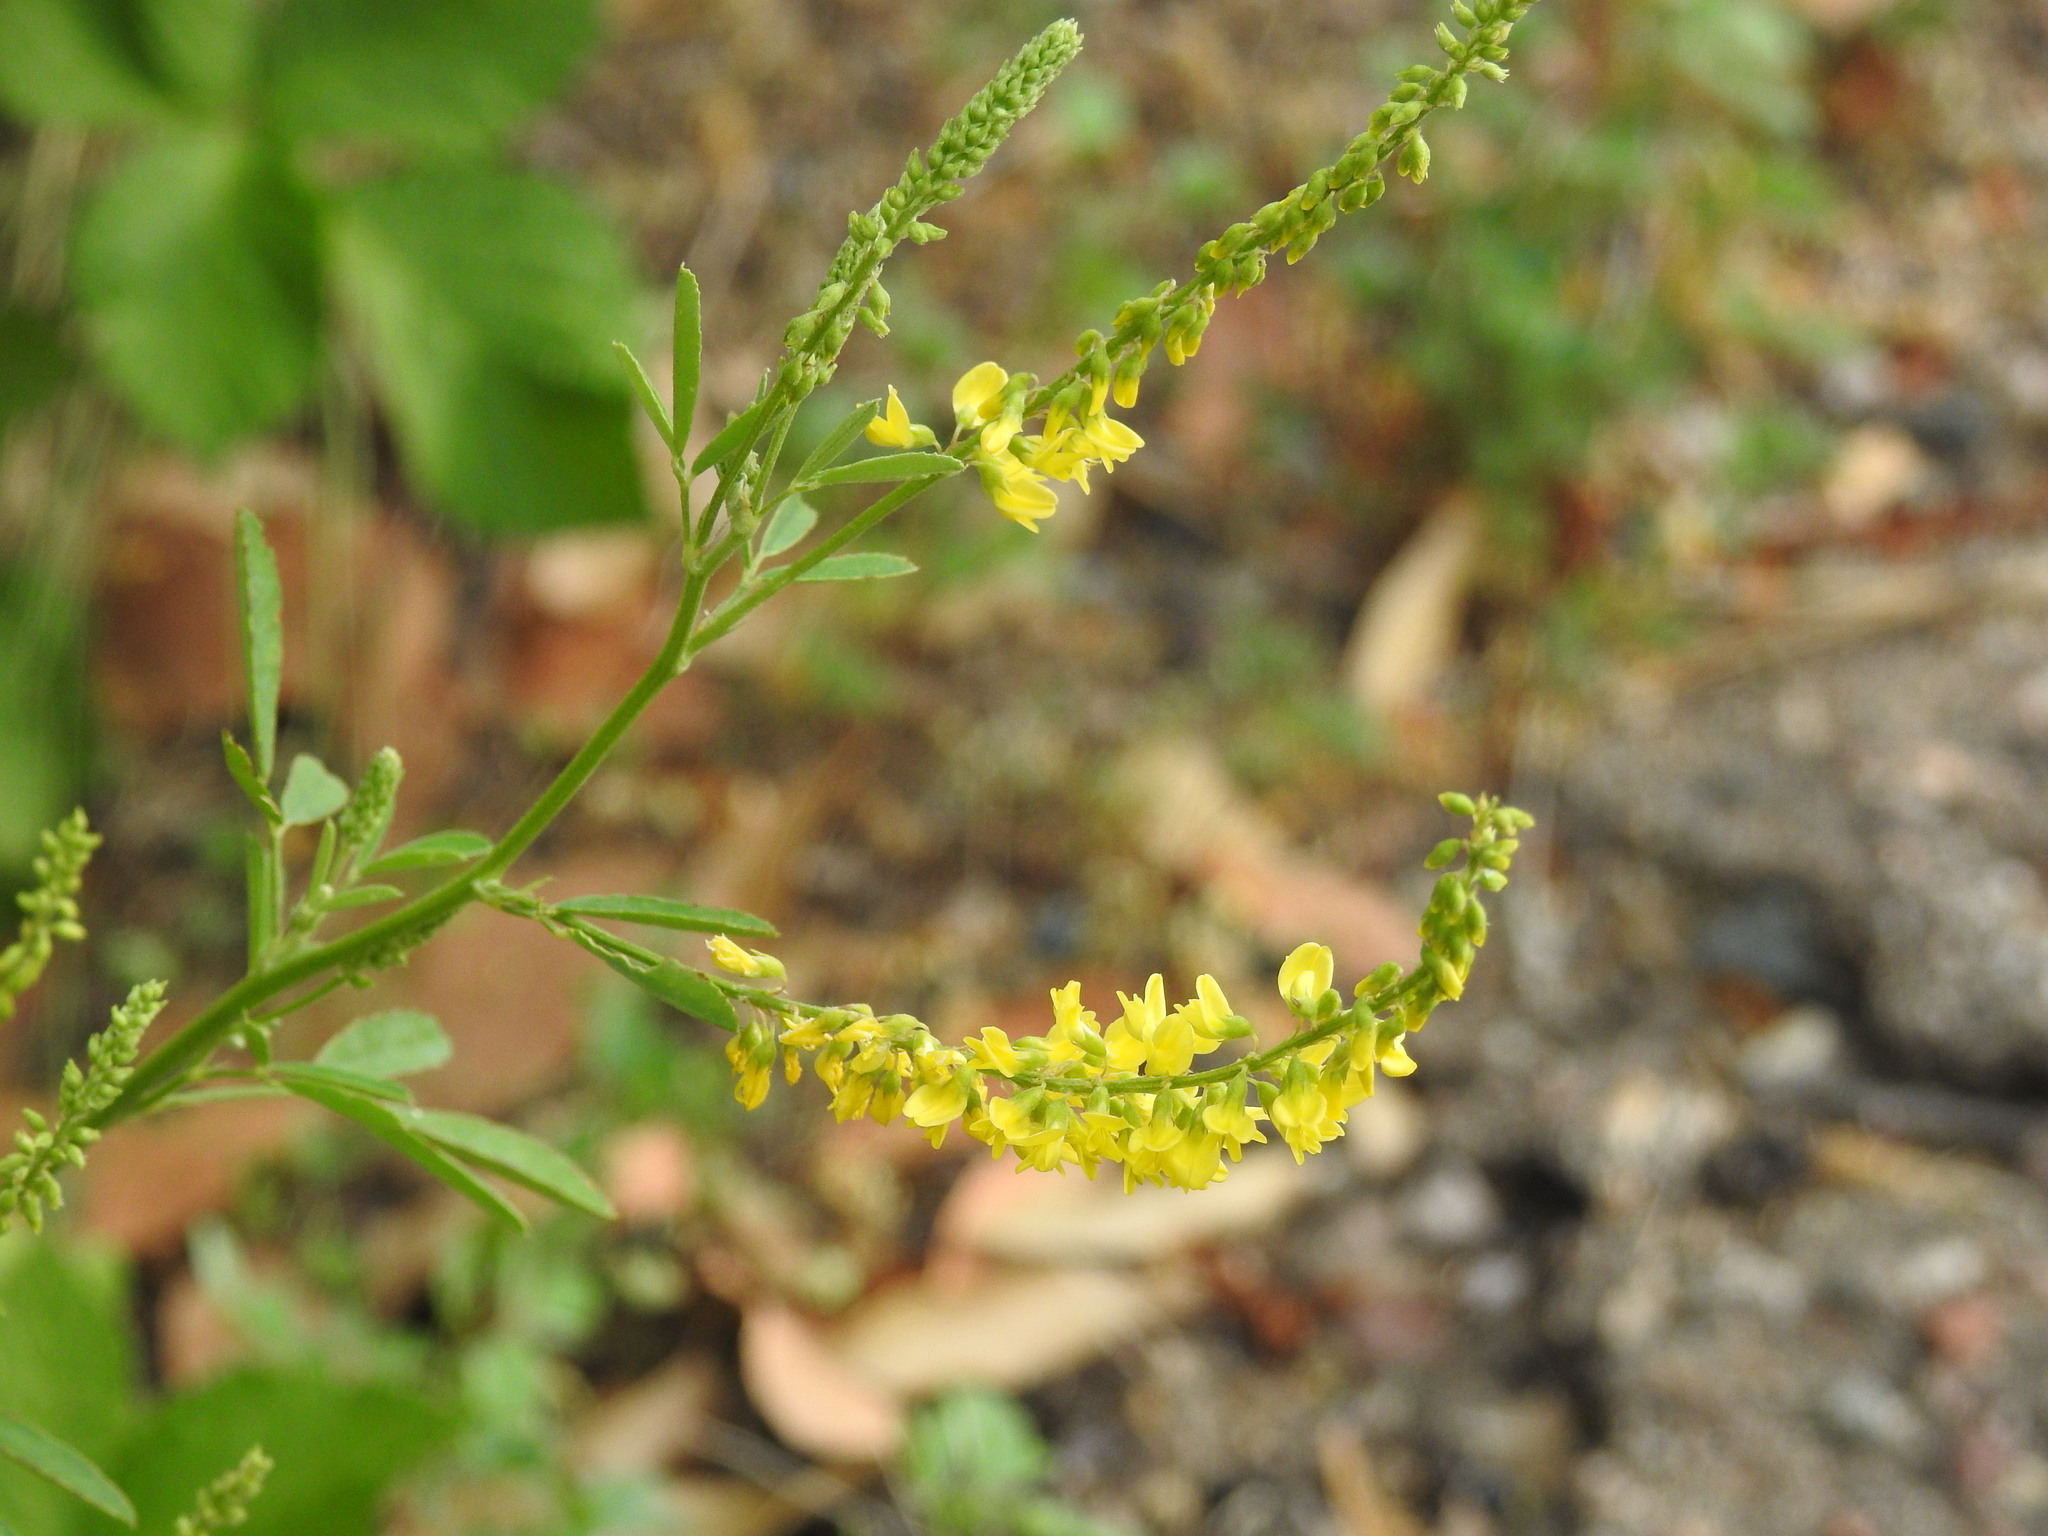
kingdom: Plantae
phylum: Tracheophyta
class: Magnoliopsida
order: Fabales
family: Fabaceae
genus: Melilotus
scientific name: Melilotus officinalis
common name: Sweetclover
